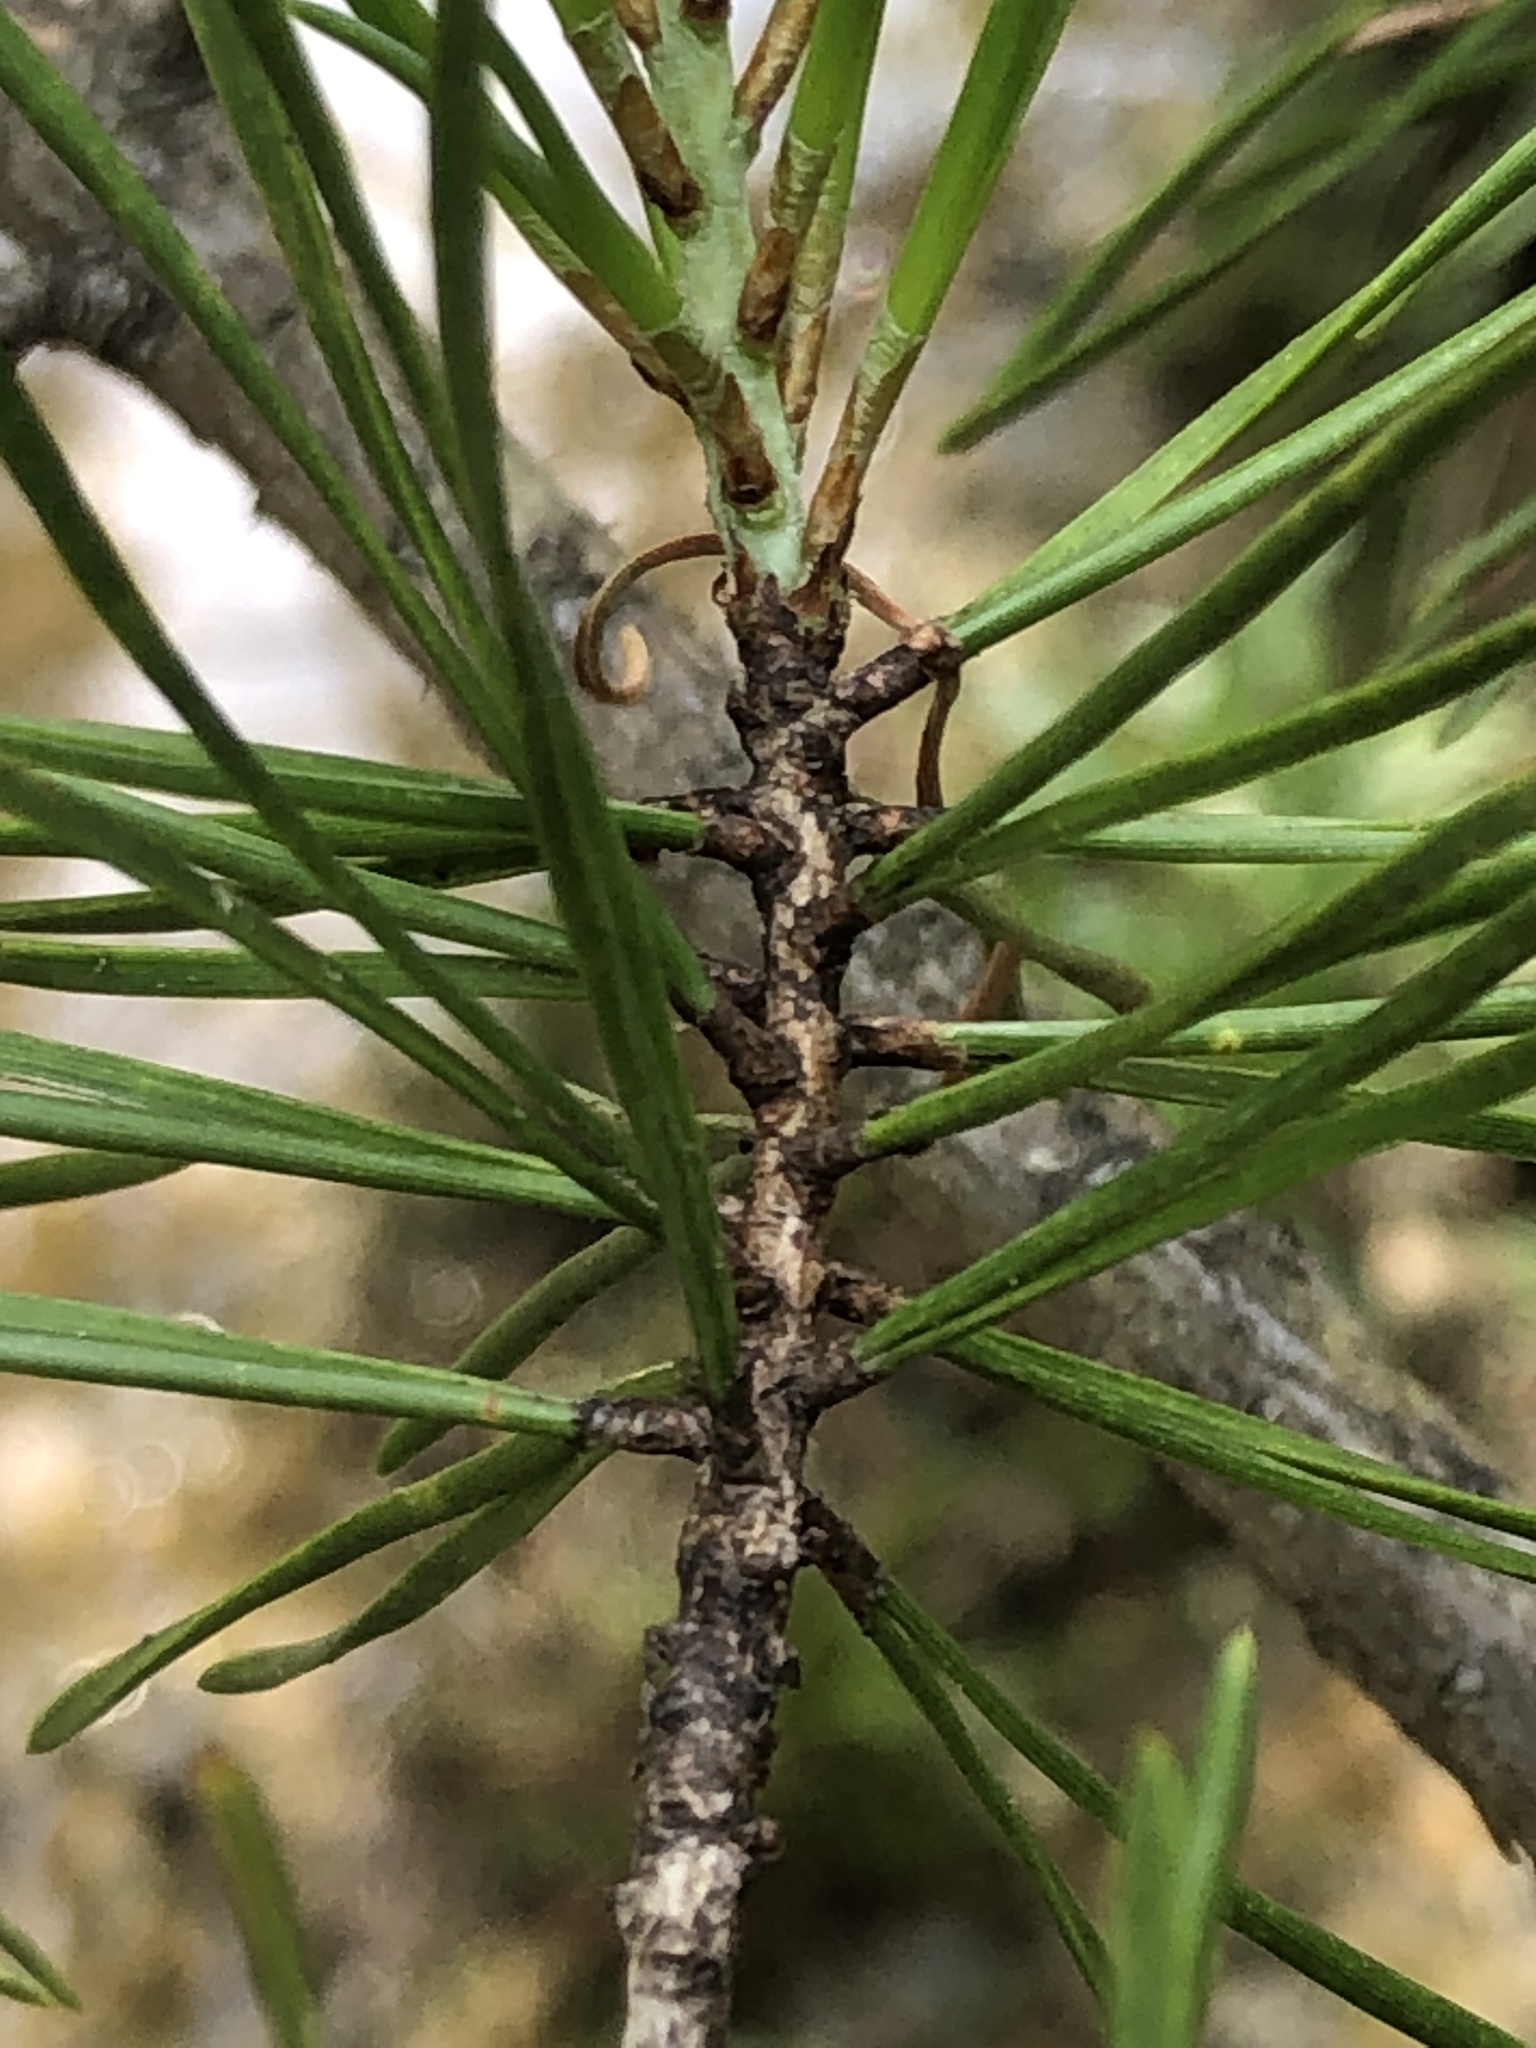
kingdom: Plantae
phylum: Tracheophyta
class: Pinopsida
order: Pinales
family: Pinaceae
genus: Pinus
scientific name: Pinus virginiana
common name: Scrub pine
